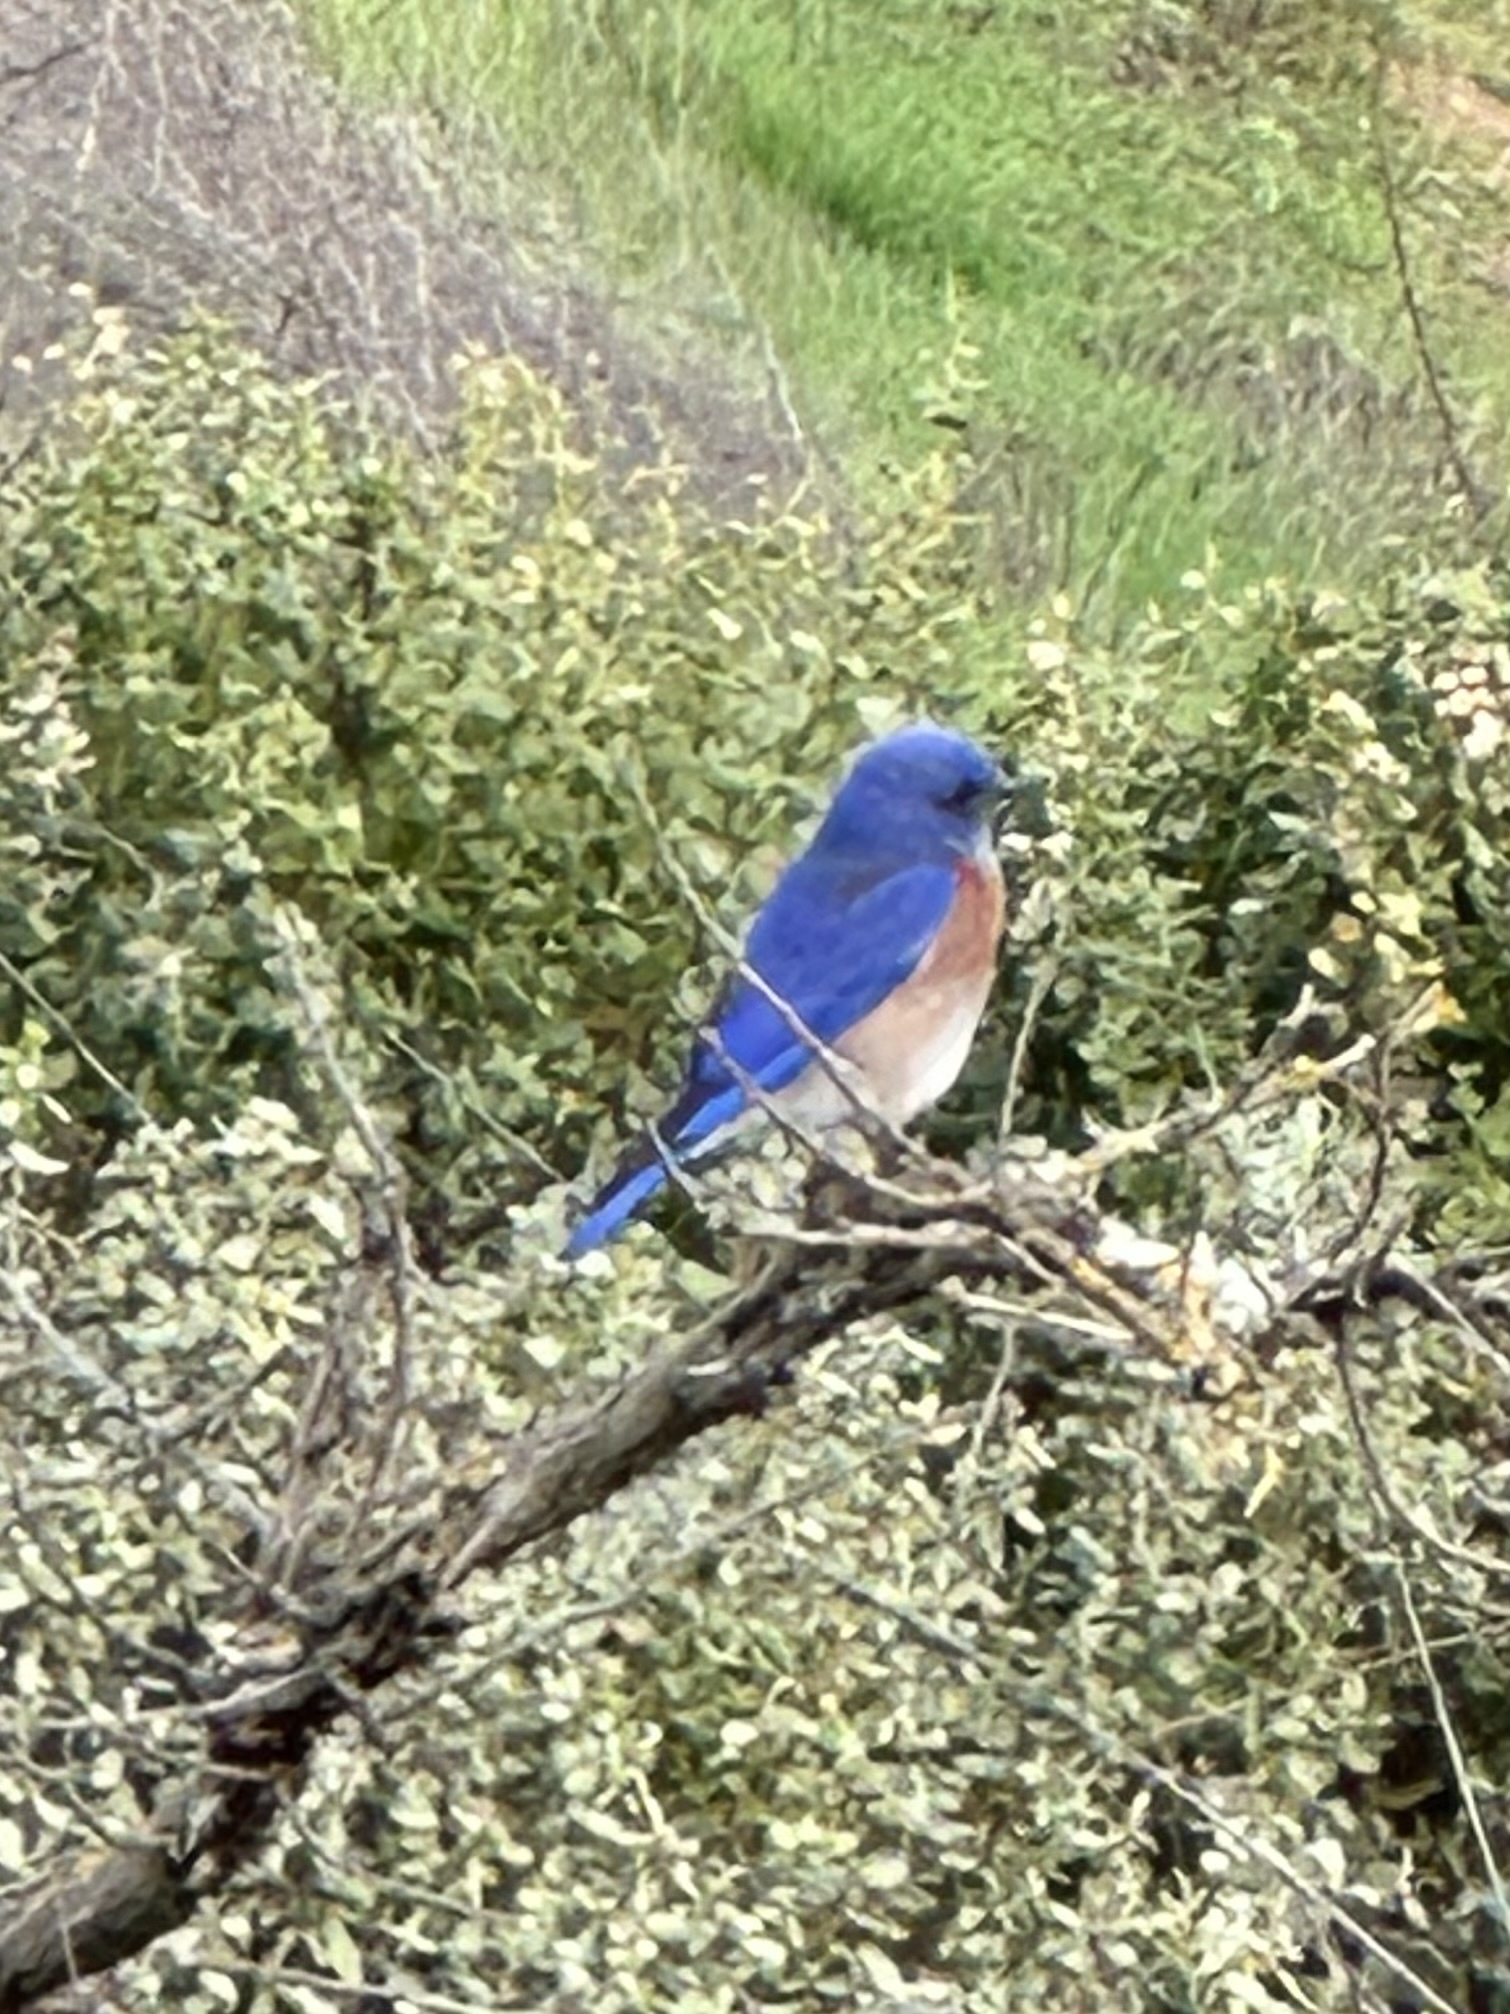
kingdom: Animalia
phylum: Chordata
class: Aves
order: Passeriformes
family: Turdidae
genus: Sialia
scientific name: Sialia mexicana
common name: Western bluebird
